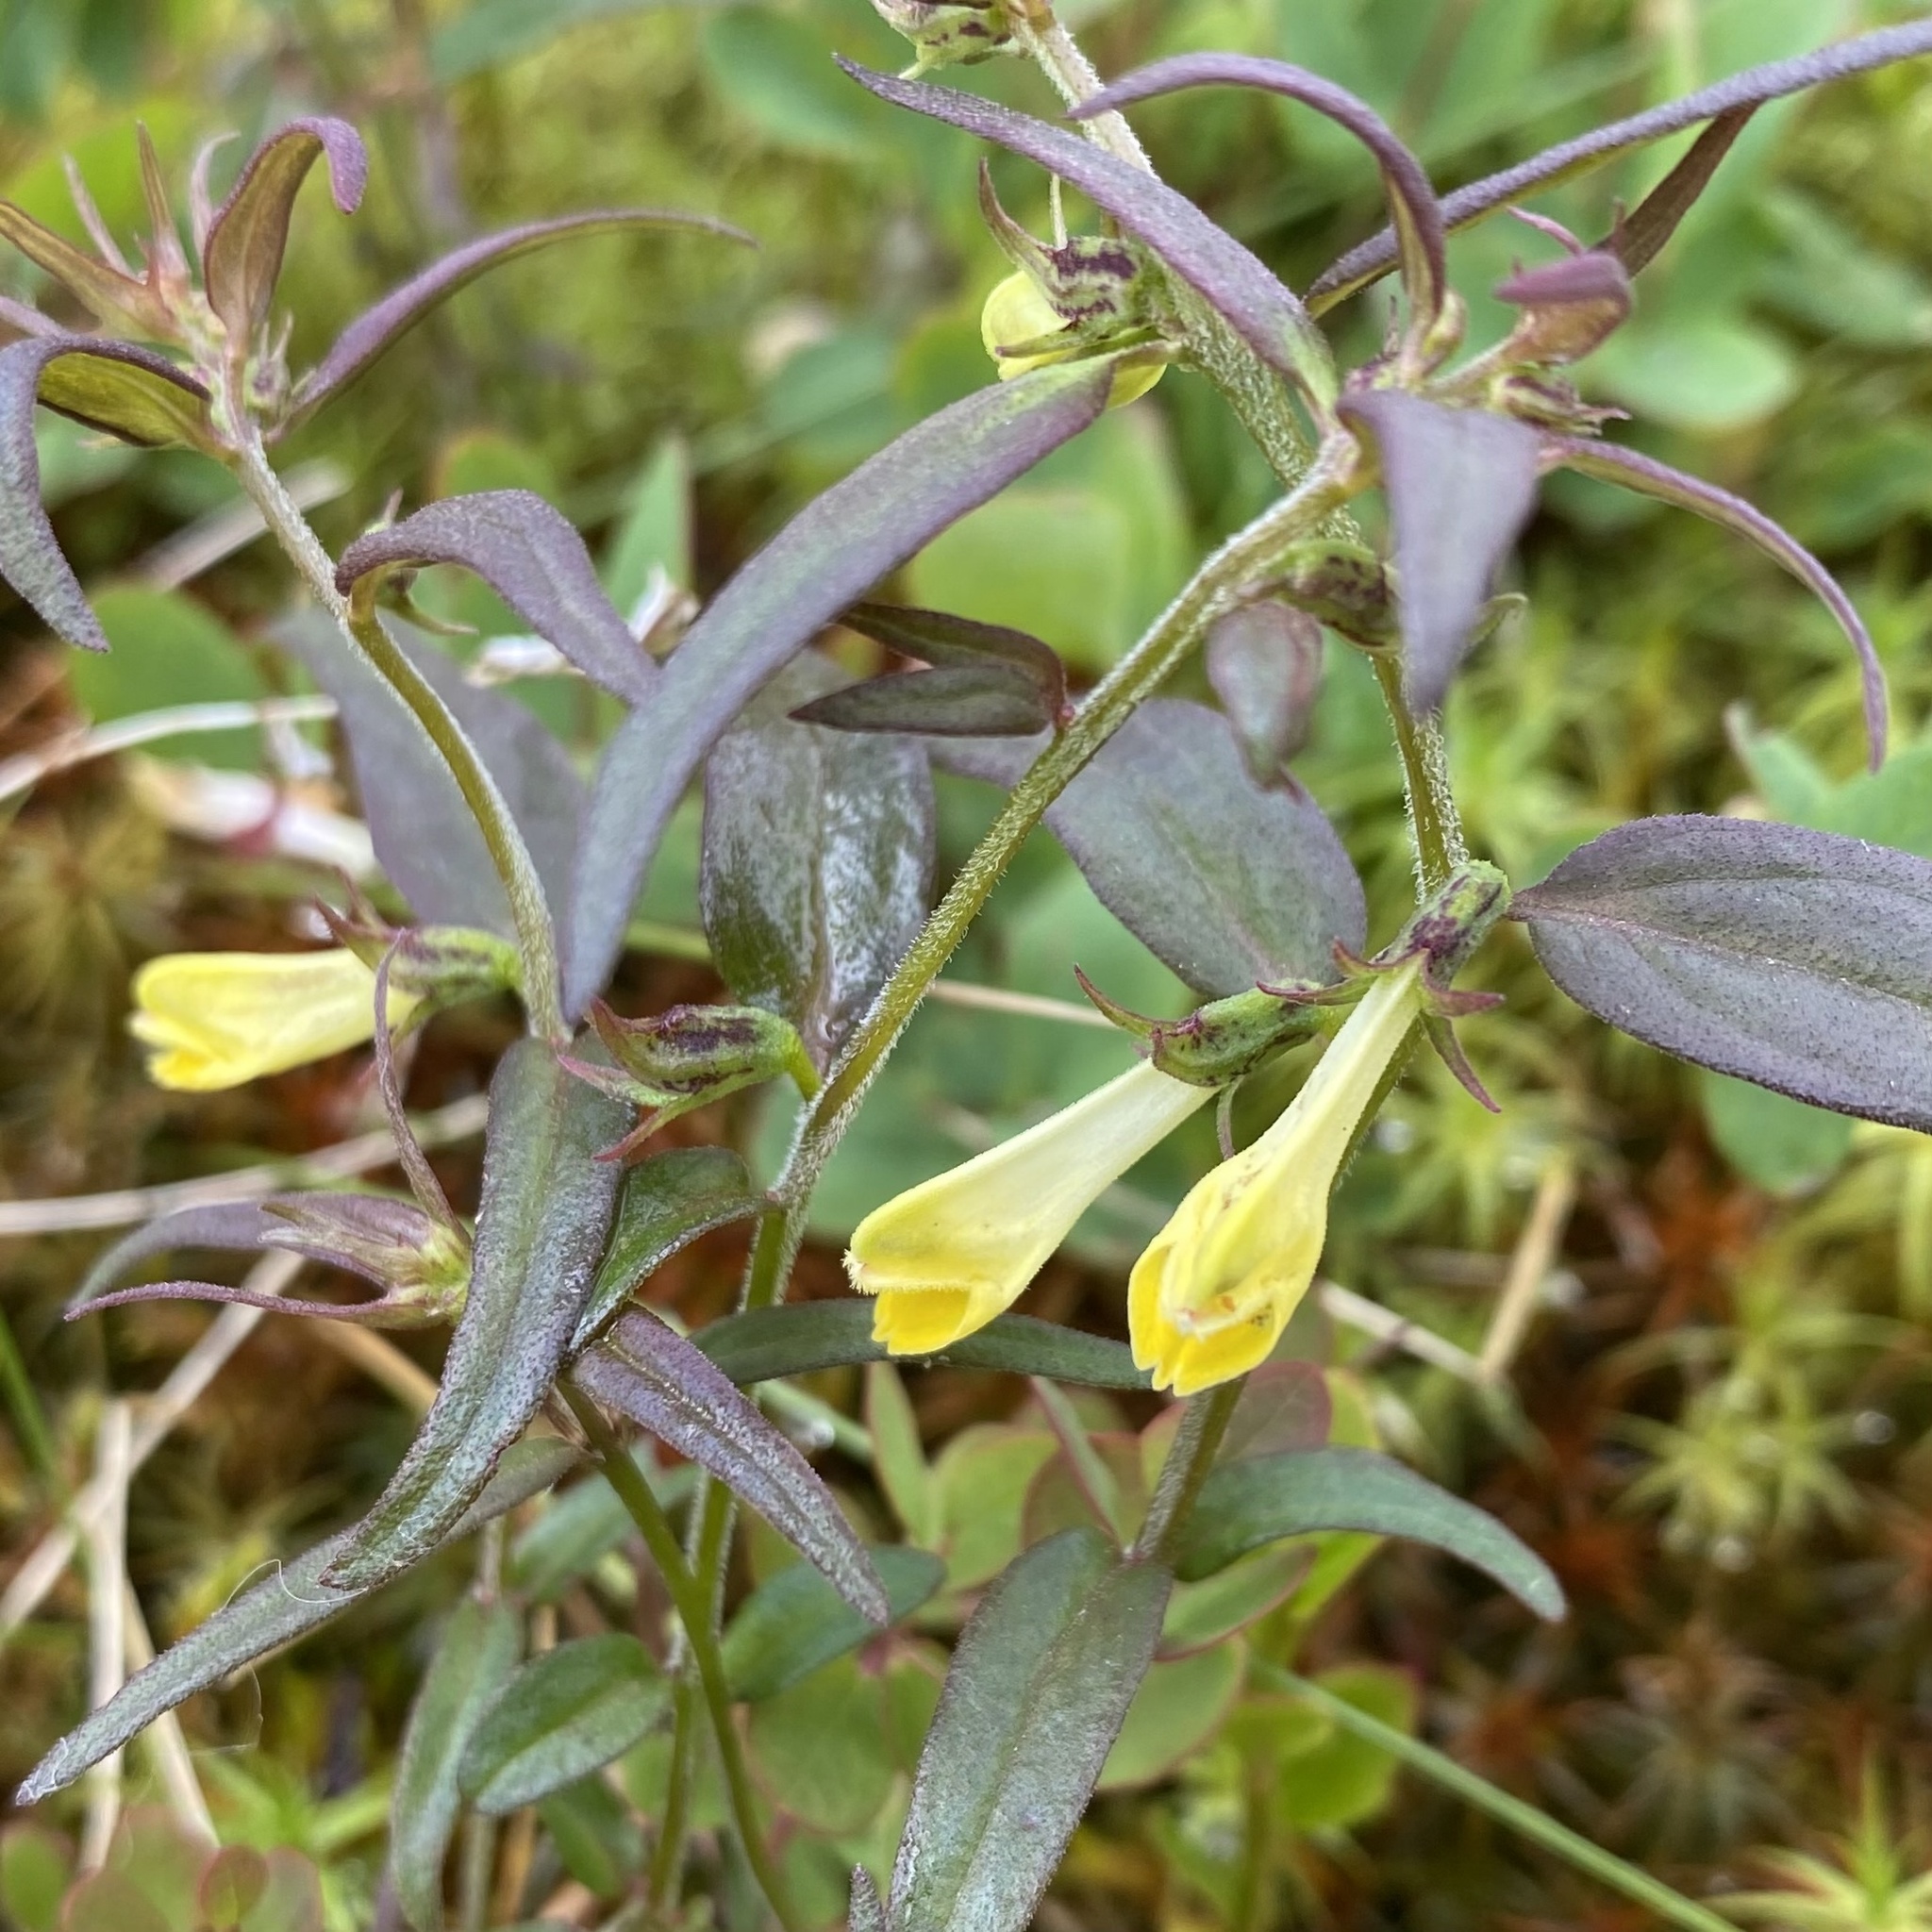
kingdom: Plantae
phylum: Tracheophyta
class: Magnoliopsida
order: Lamiales
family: Orobanchaceae
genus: Melampyrum
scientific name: Melampyrum pratense
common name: Common cow-wheat
